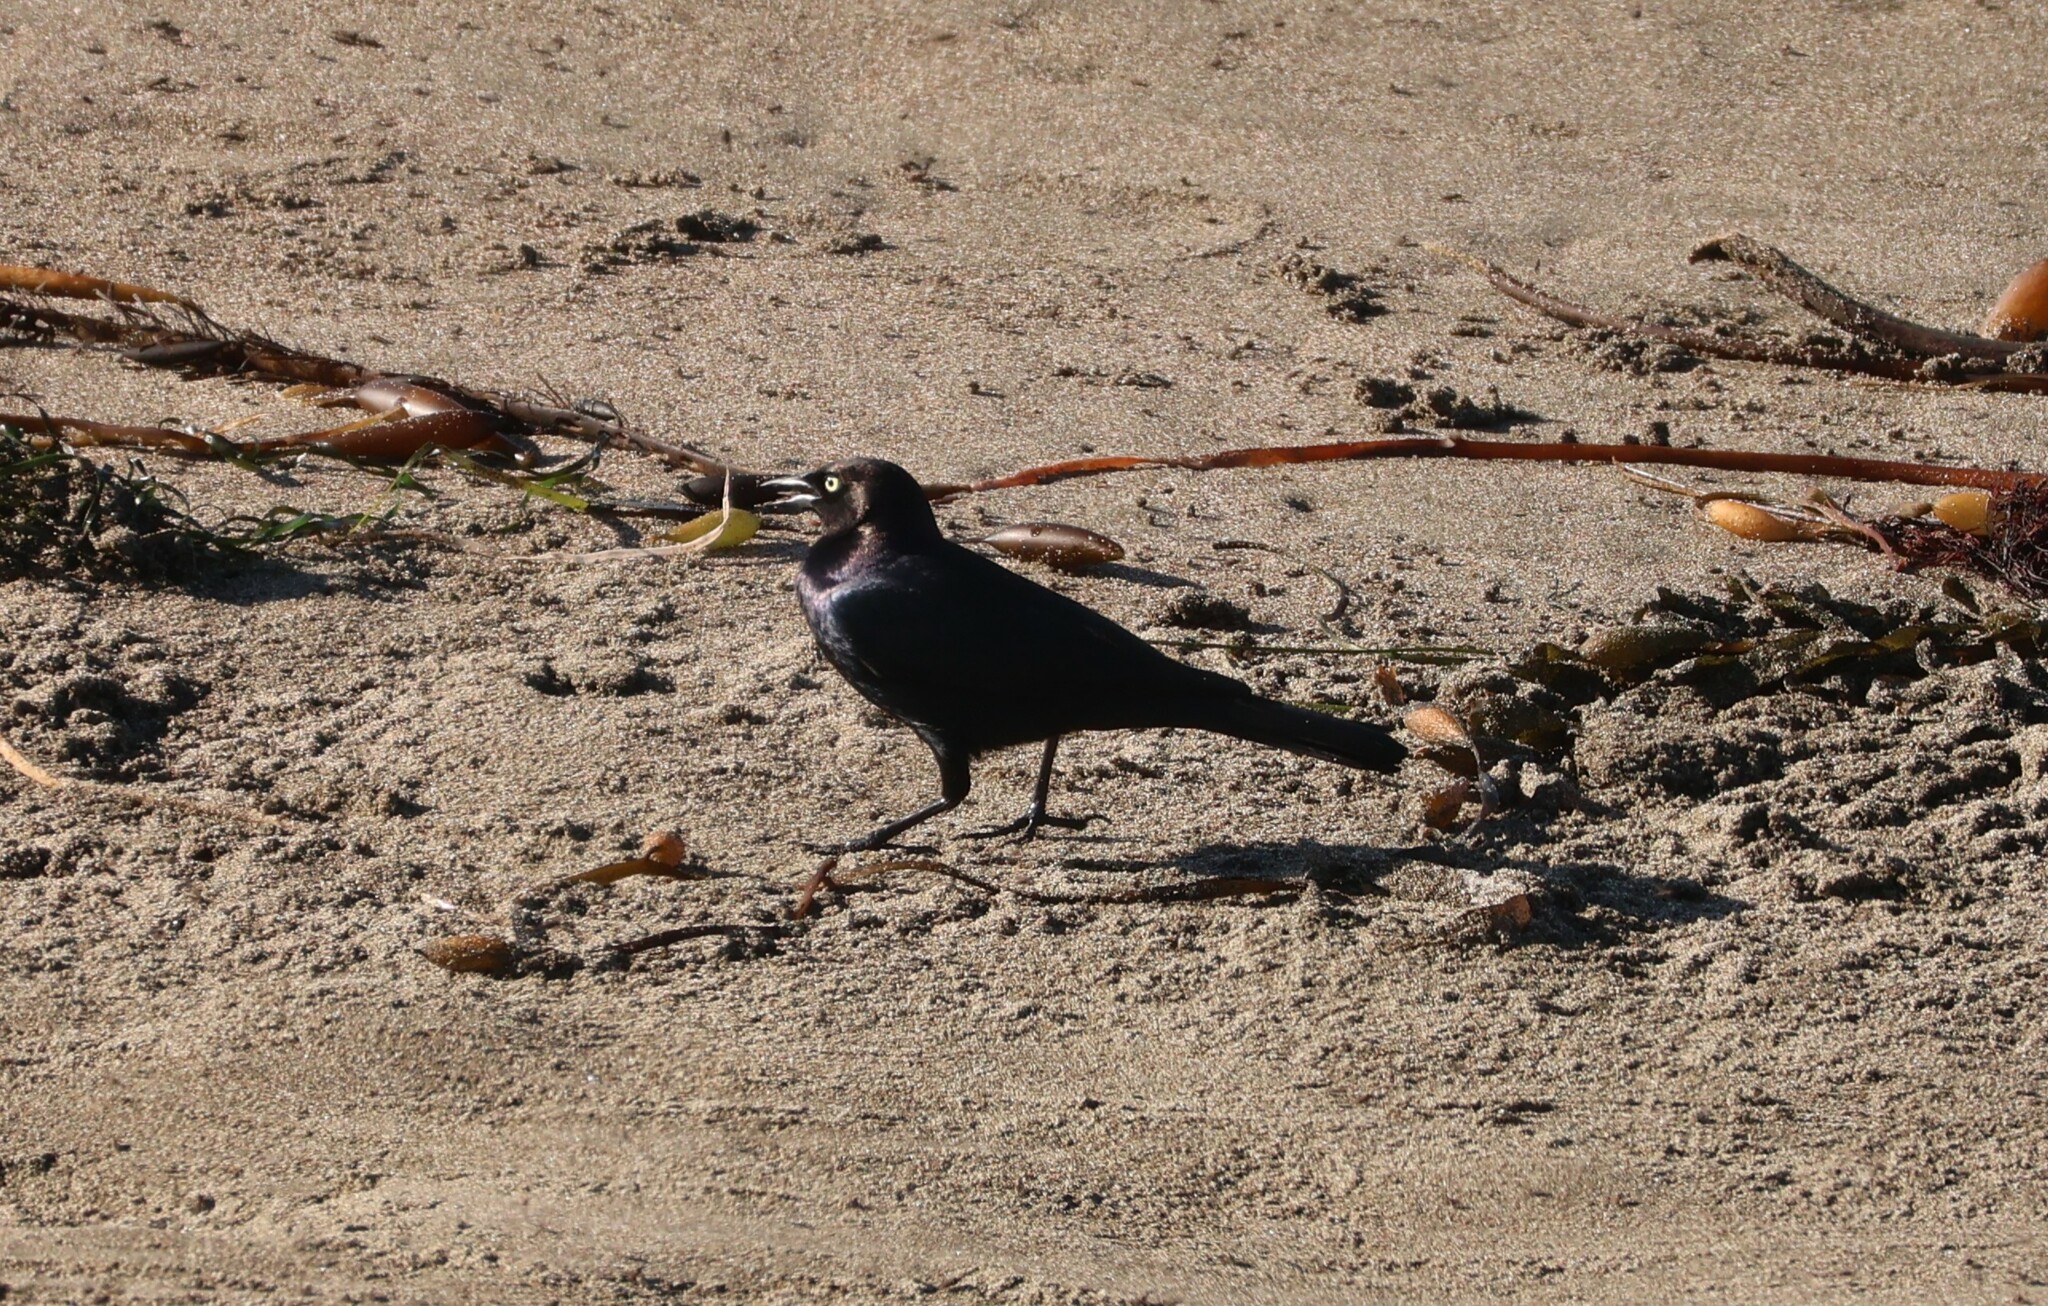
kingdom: Animalia
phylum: Chordata
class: Aves
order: Passeriformes
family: Icteridae
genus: Euphagus
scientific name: Euphagus cyanocephalus
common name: Brewer's blackbird
